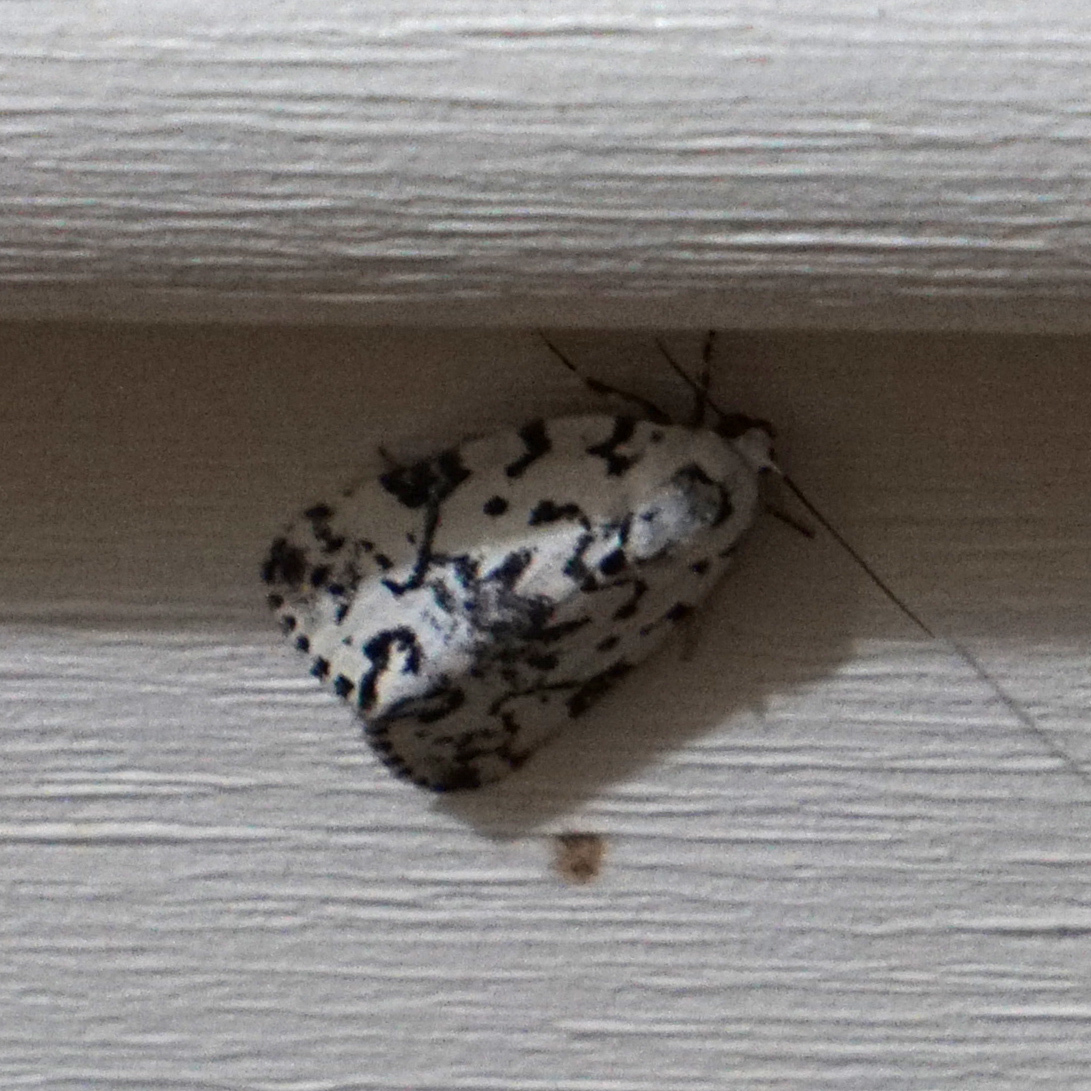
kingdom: Animalia
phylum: Arthropoda
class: Insecta
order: Lepidoptera
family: Noctuidae
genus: Polygrammate
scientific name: Polygrammate hebraeicum
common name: Hebrew moth
